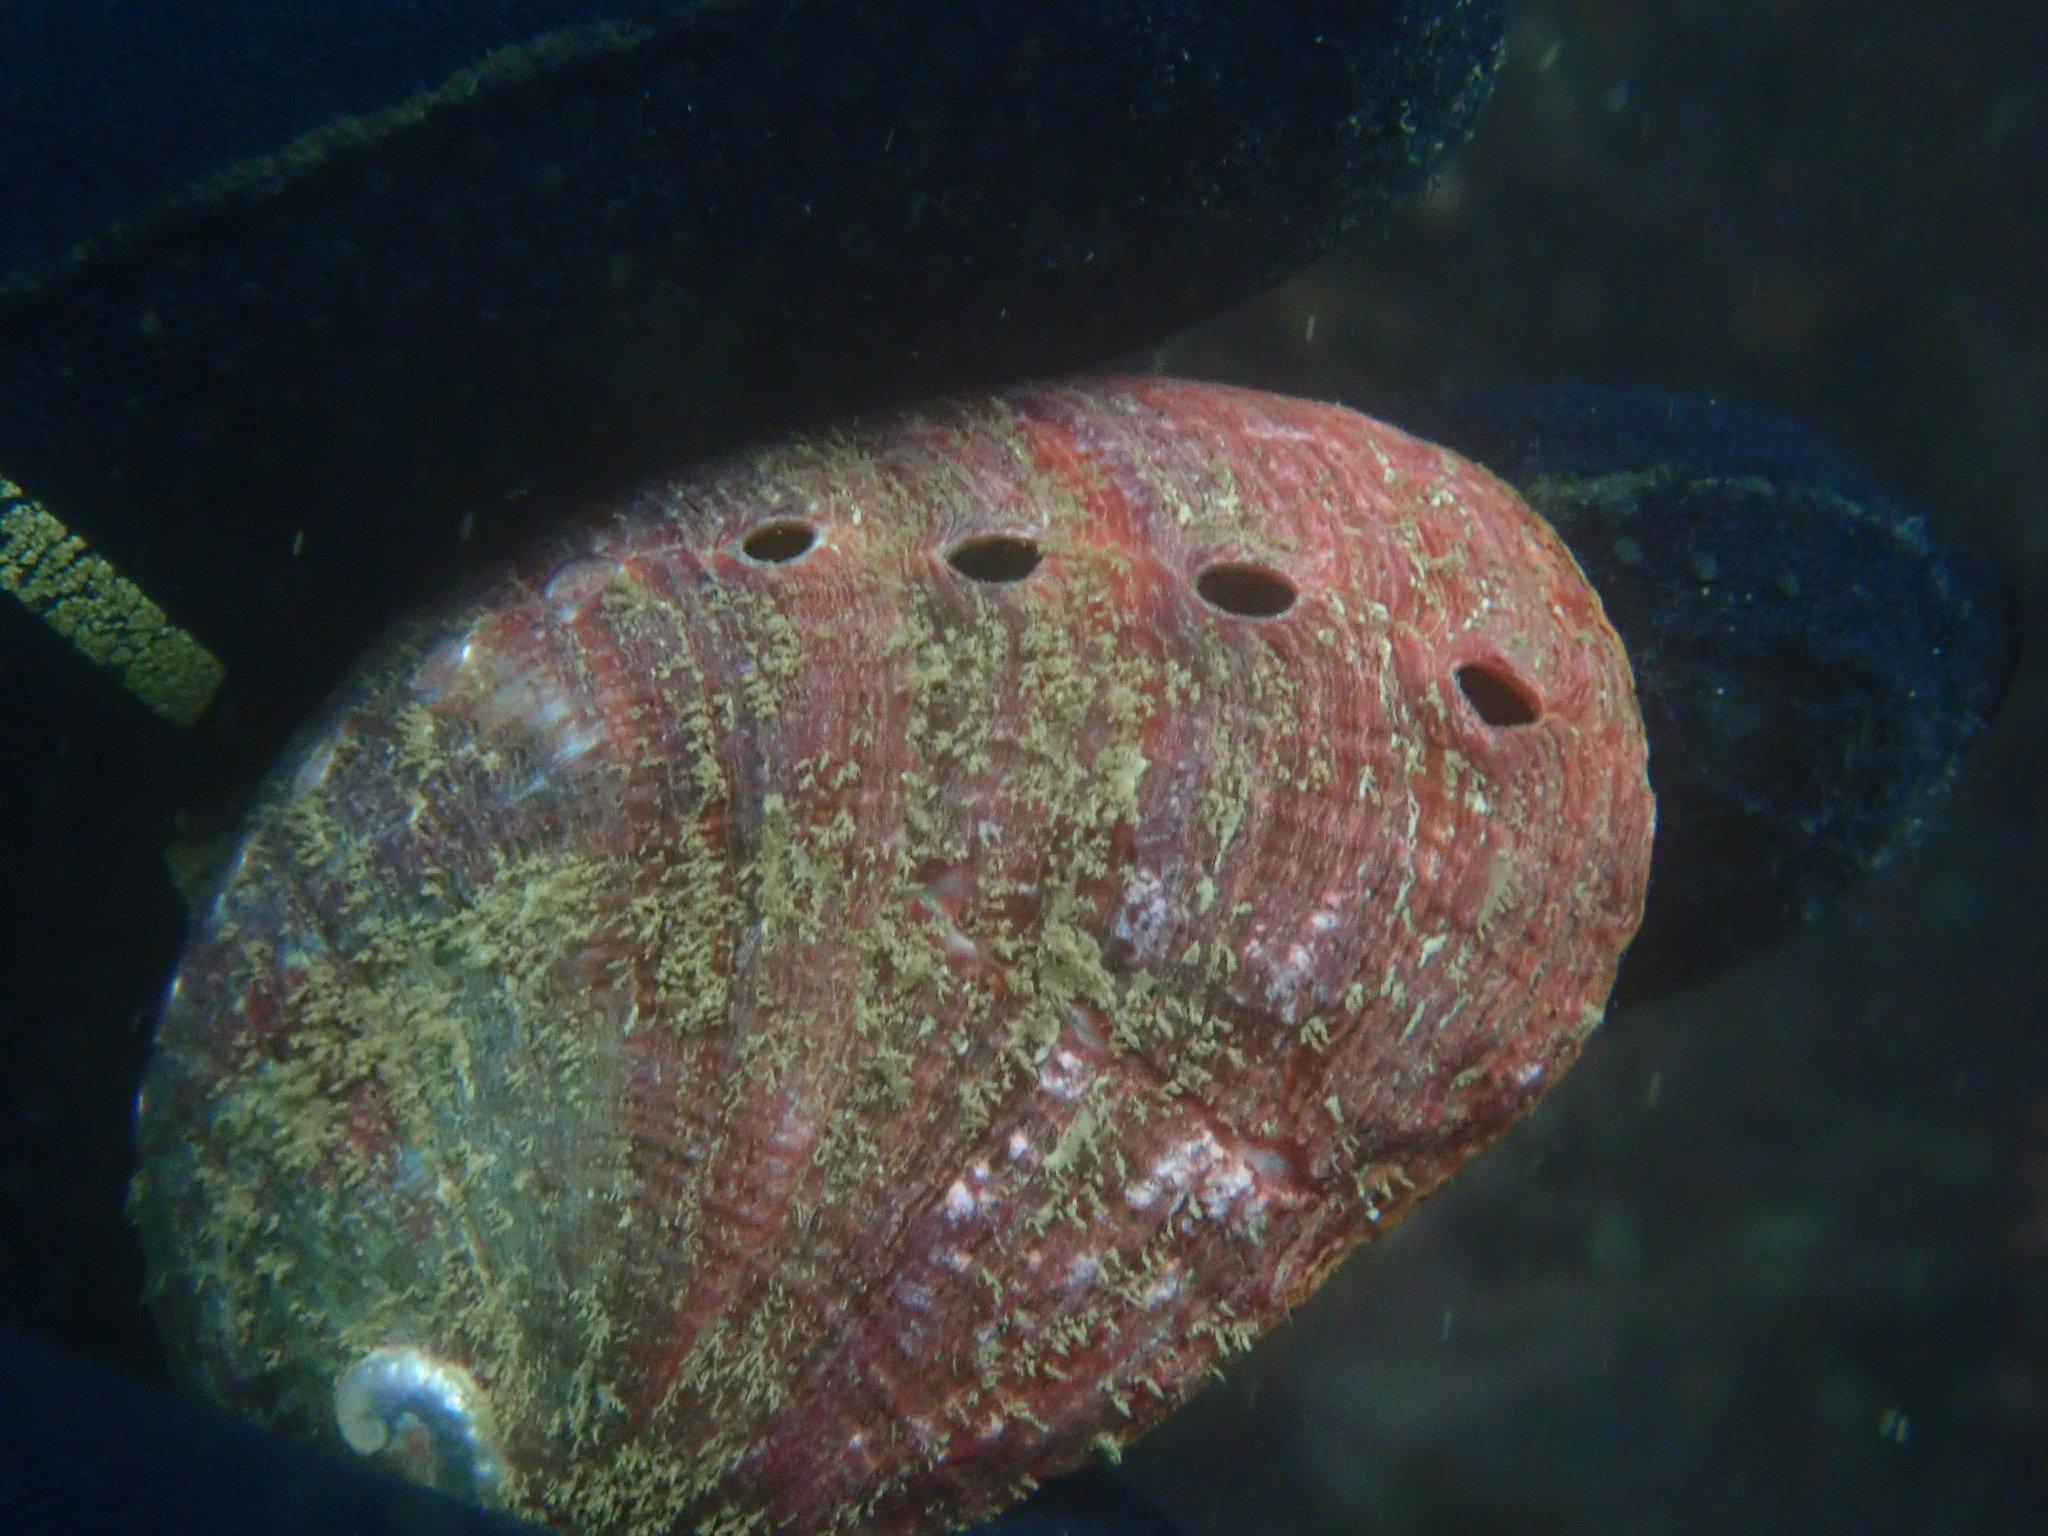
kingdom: Animalia
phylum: Mollusca
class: Gastropoda
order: Lepetellida
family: Haliotidae
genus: Haliotis
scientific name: Haliotis rufescens
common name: Red abalone
